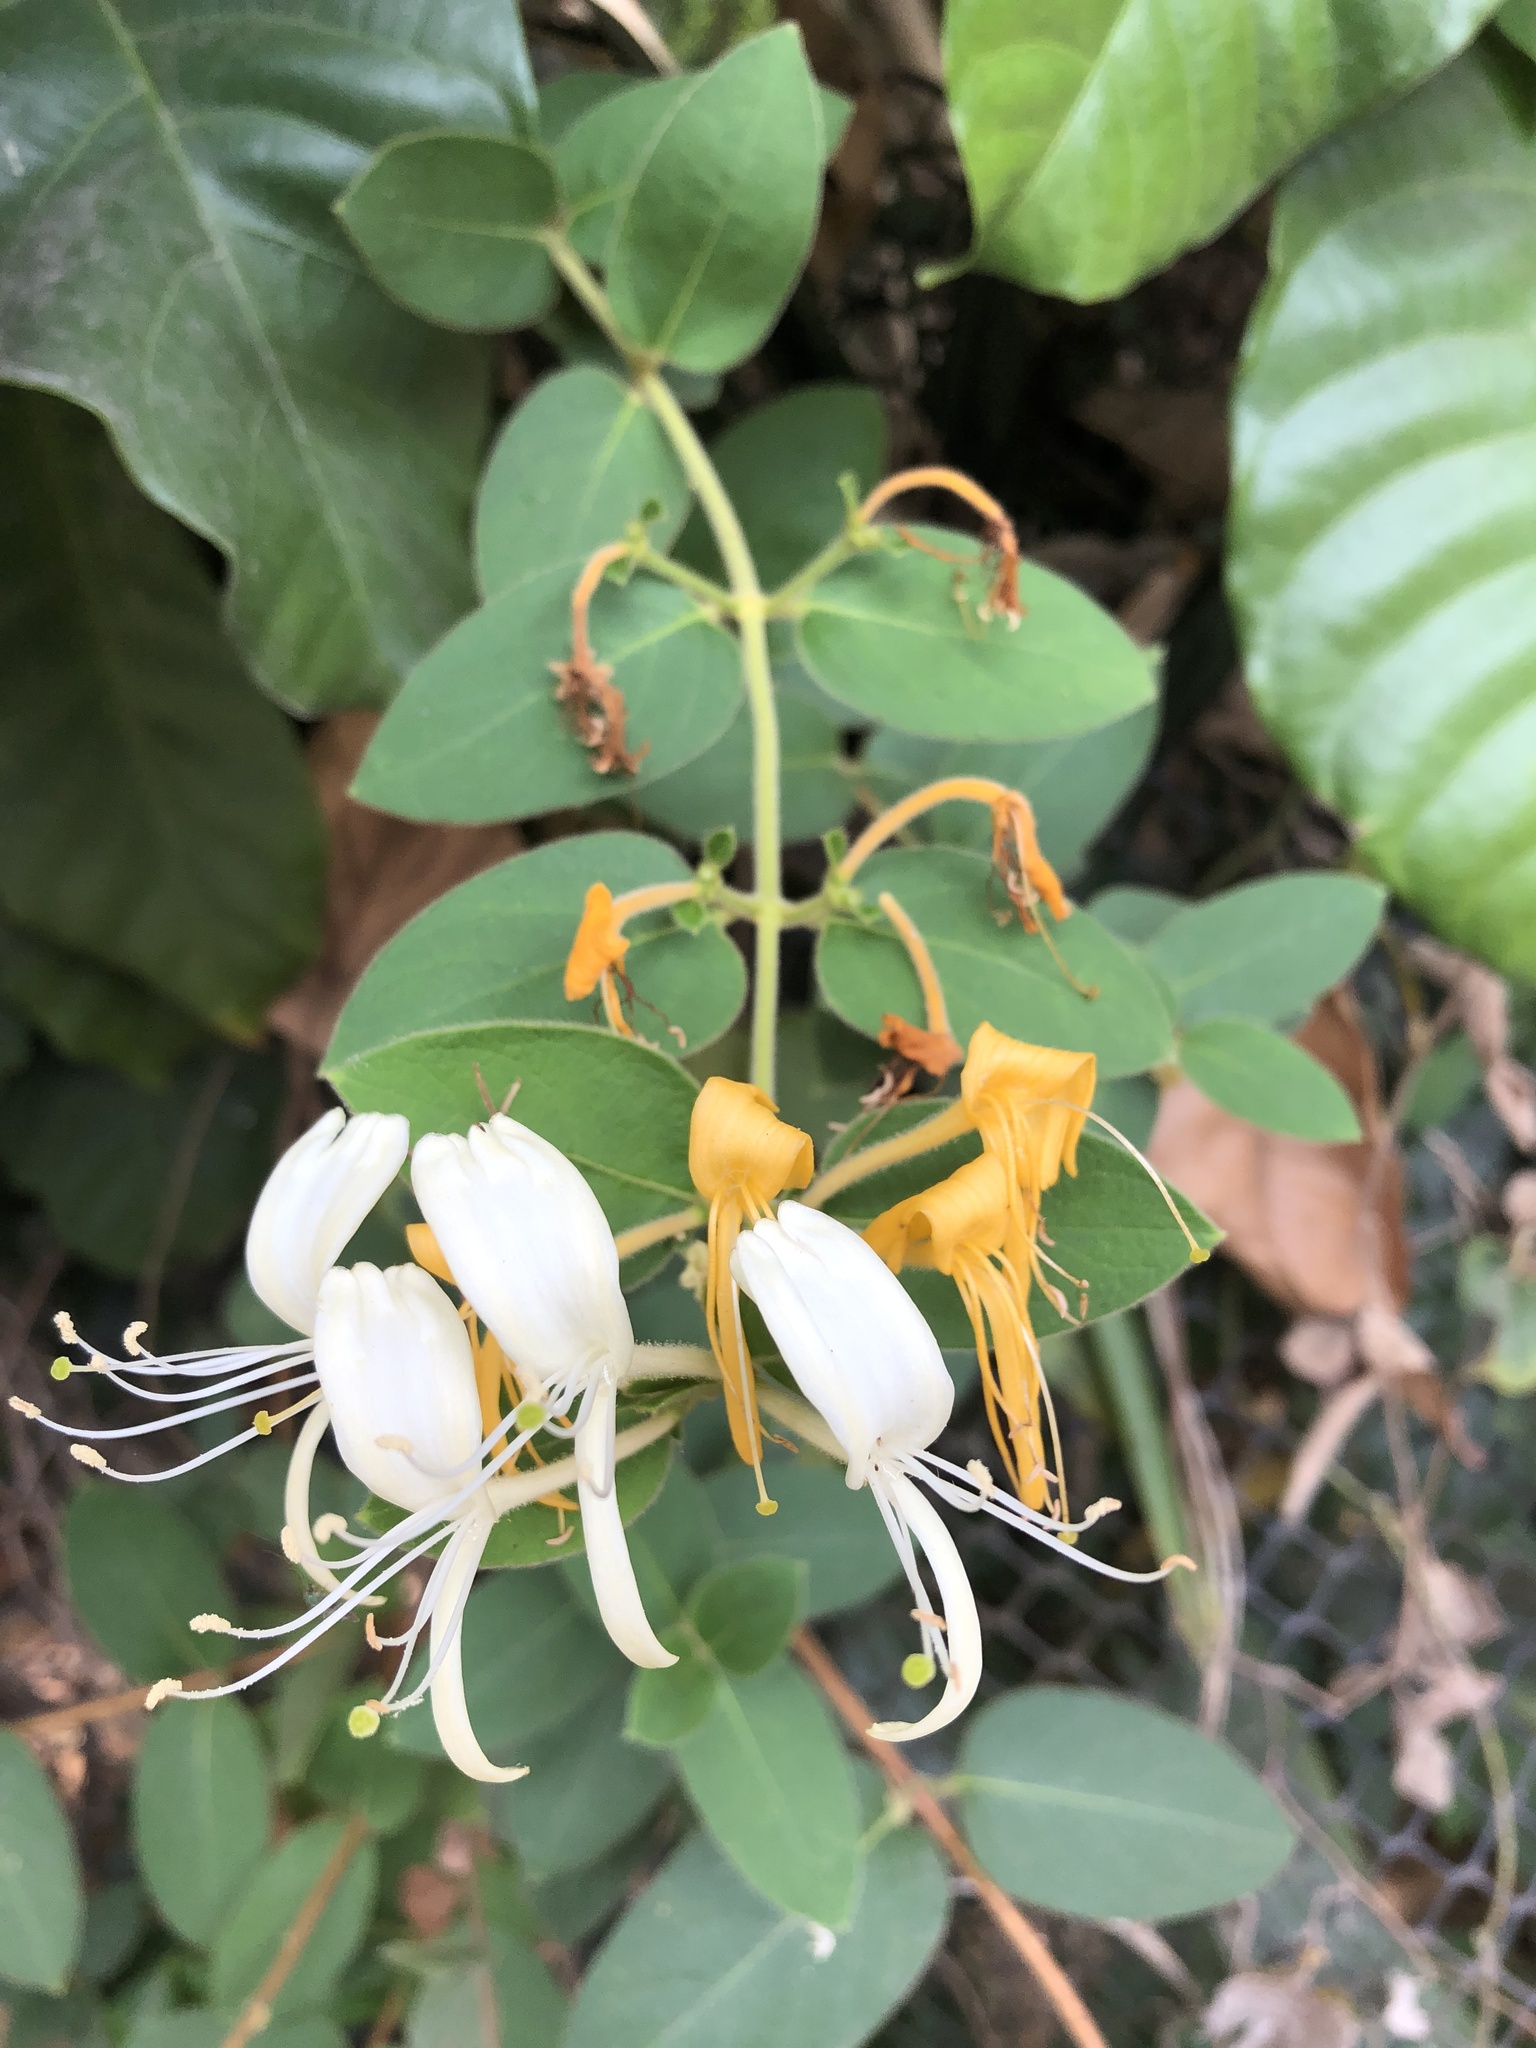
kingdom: Plantae
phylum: Tracheophyta
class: Magnoliopsida
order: Dipsacales
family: Caprifoliaceae
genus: Lonicera
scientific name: Lonicera japonica
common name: Japanese honeysuckle
